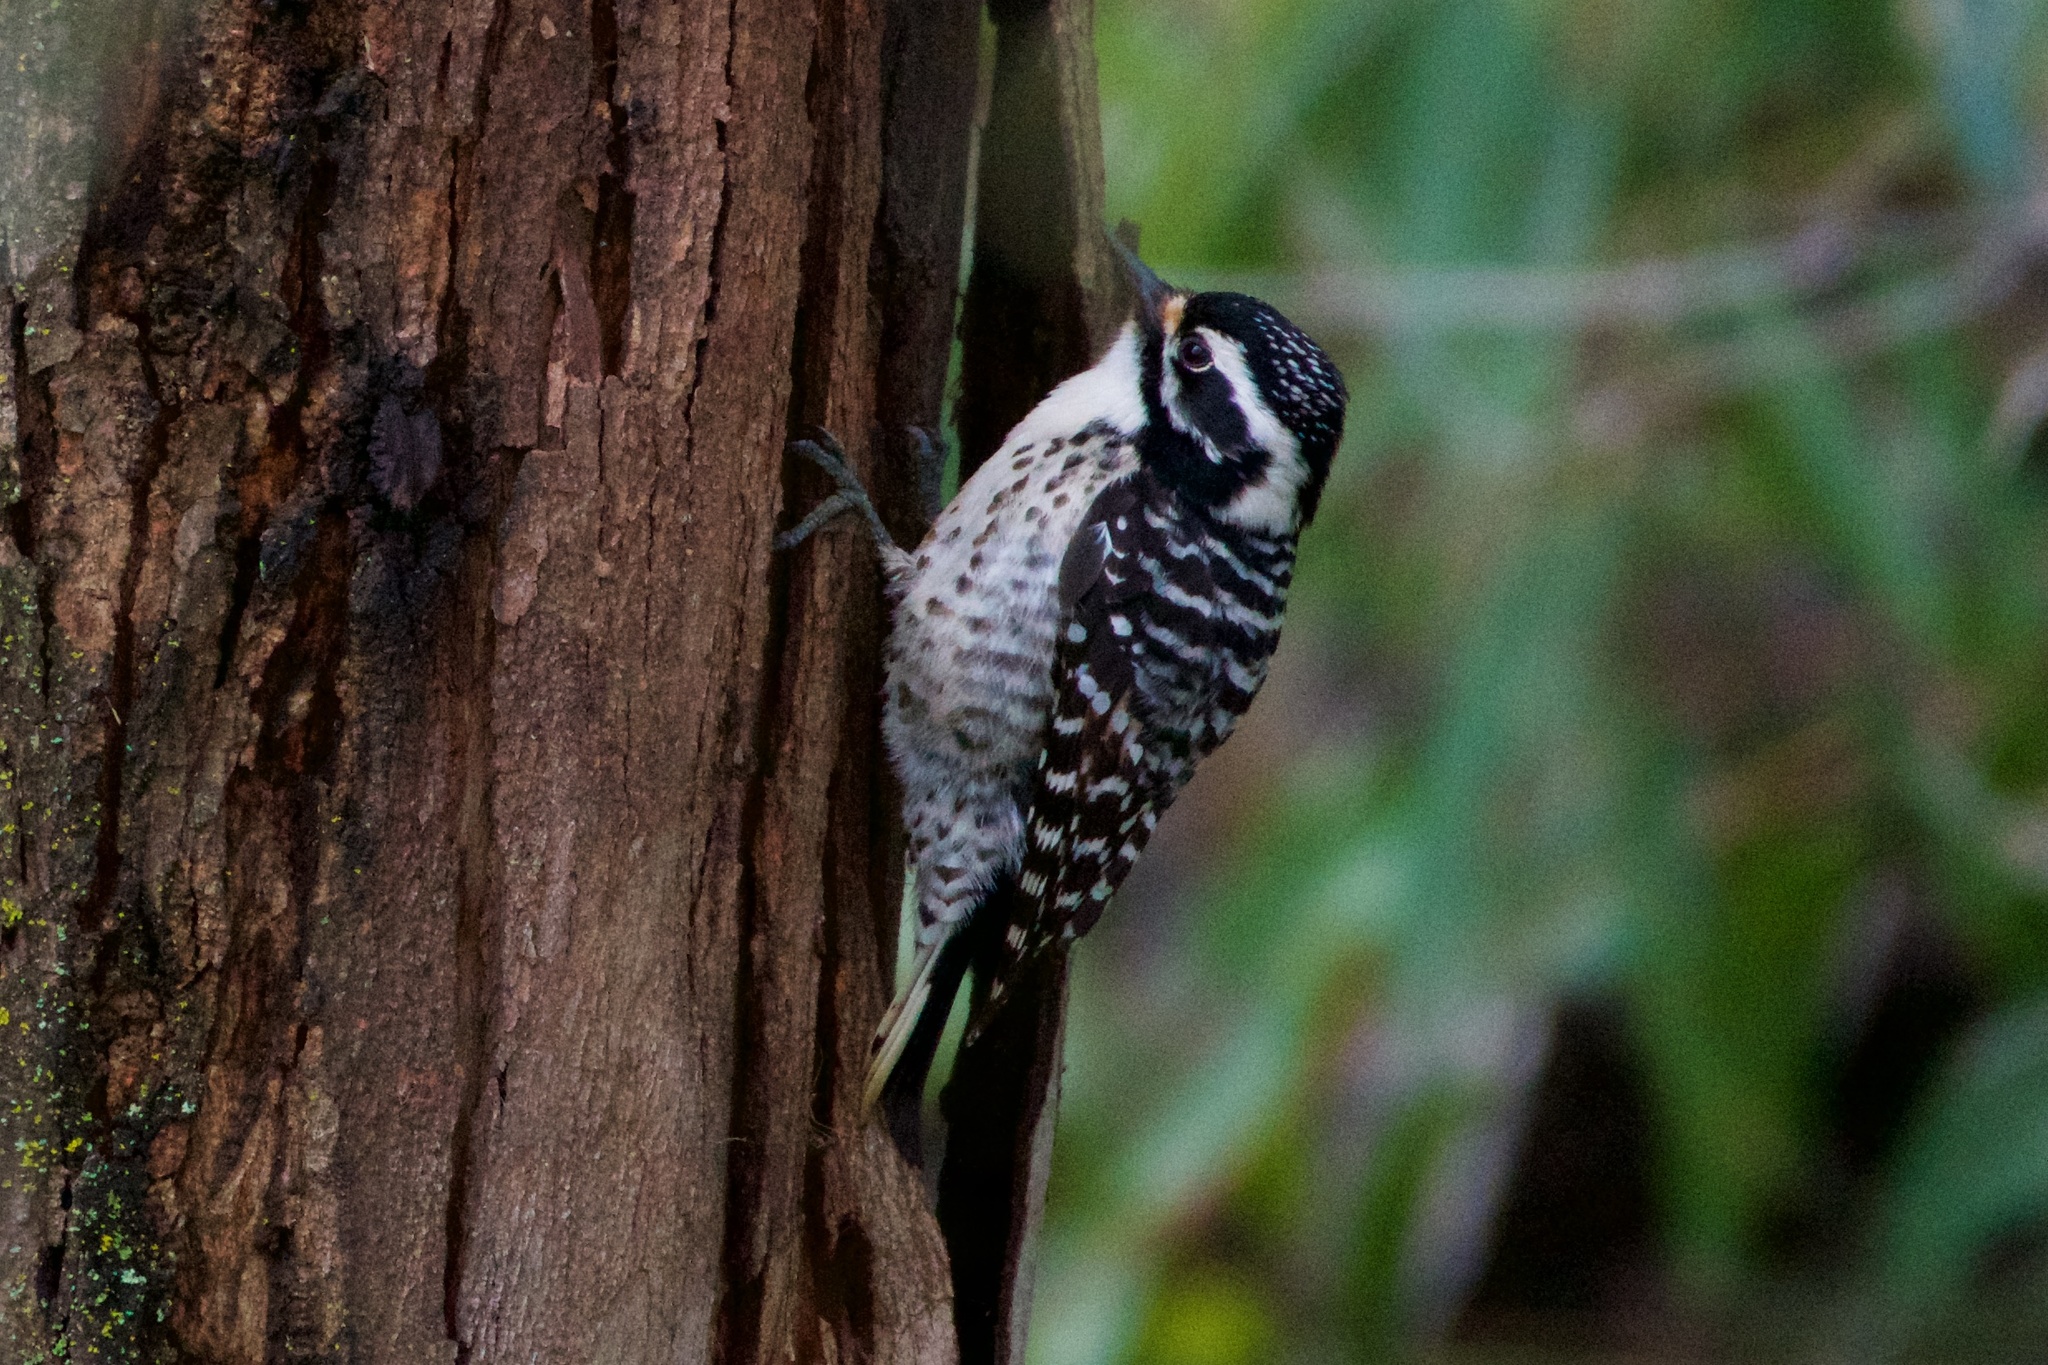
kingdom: Animalia
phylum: Chordata
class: Aves
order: Piciformes
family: Picidae
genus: Dryobates
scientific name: Dryobates nuttallii
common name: Nuttall's woodpecker
